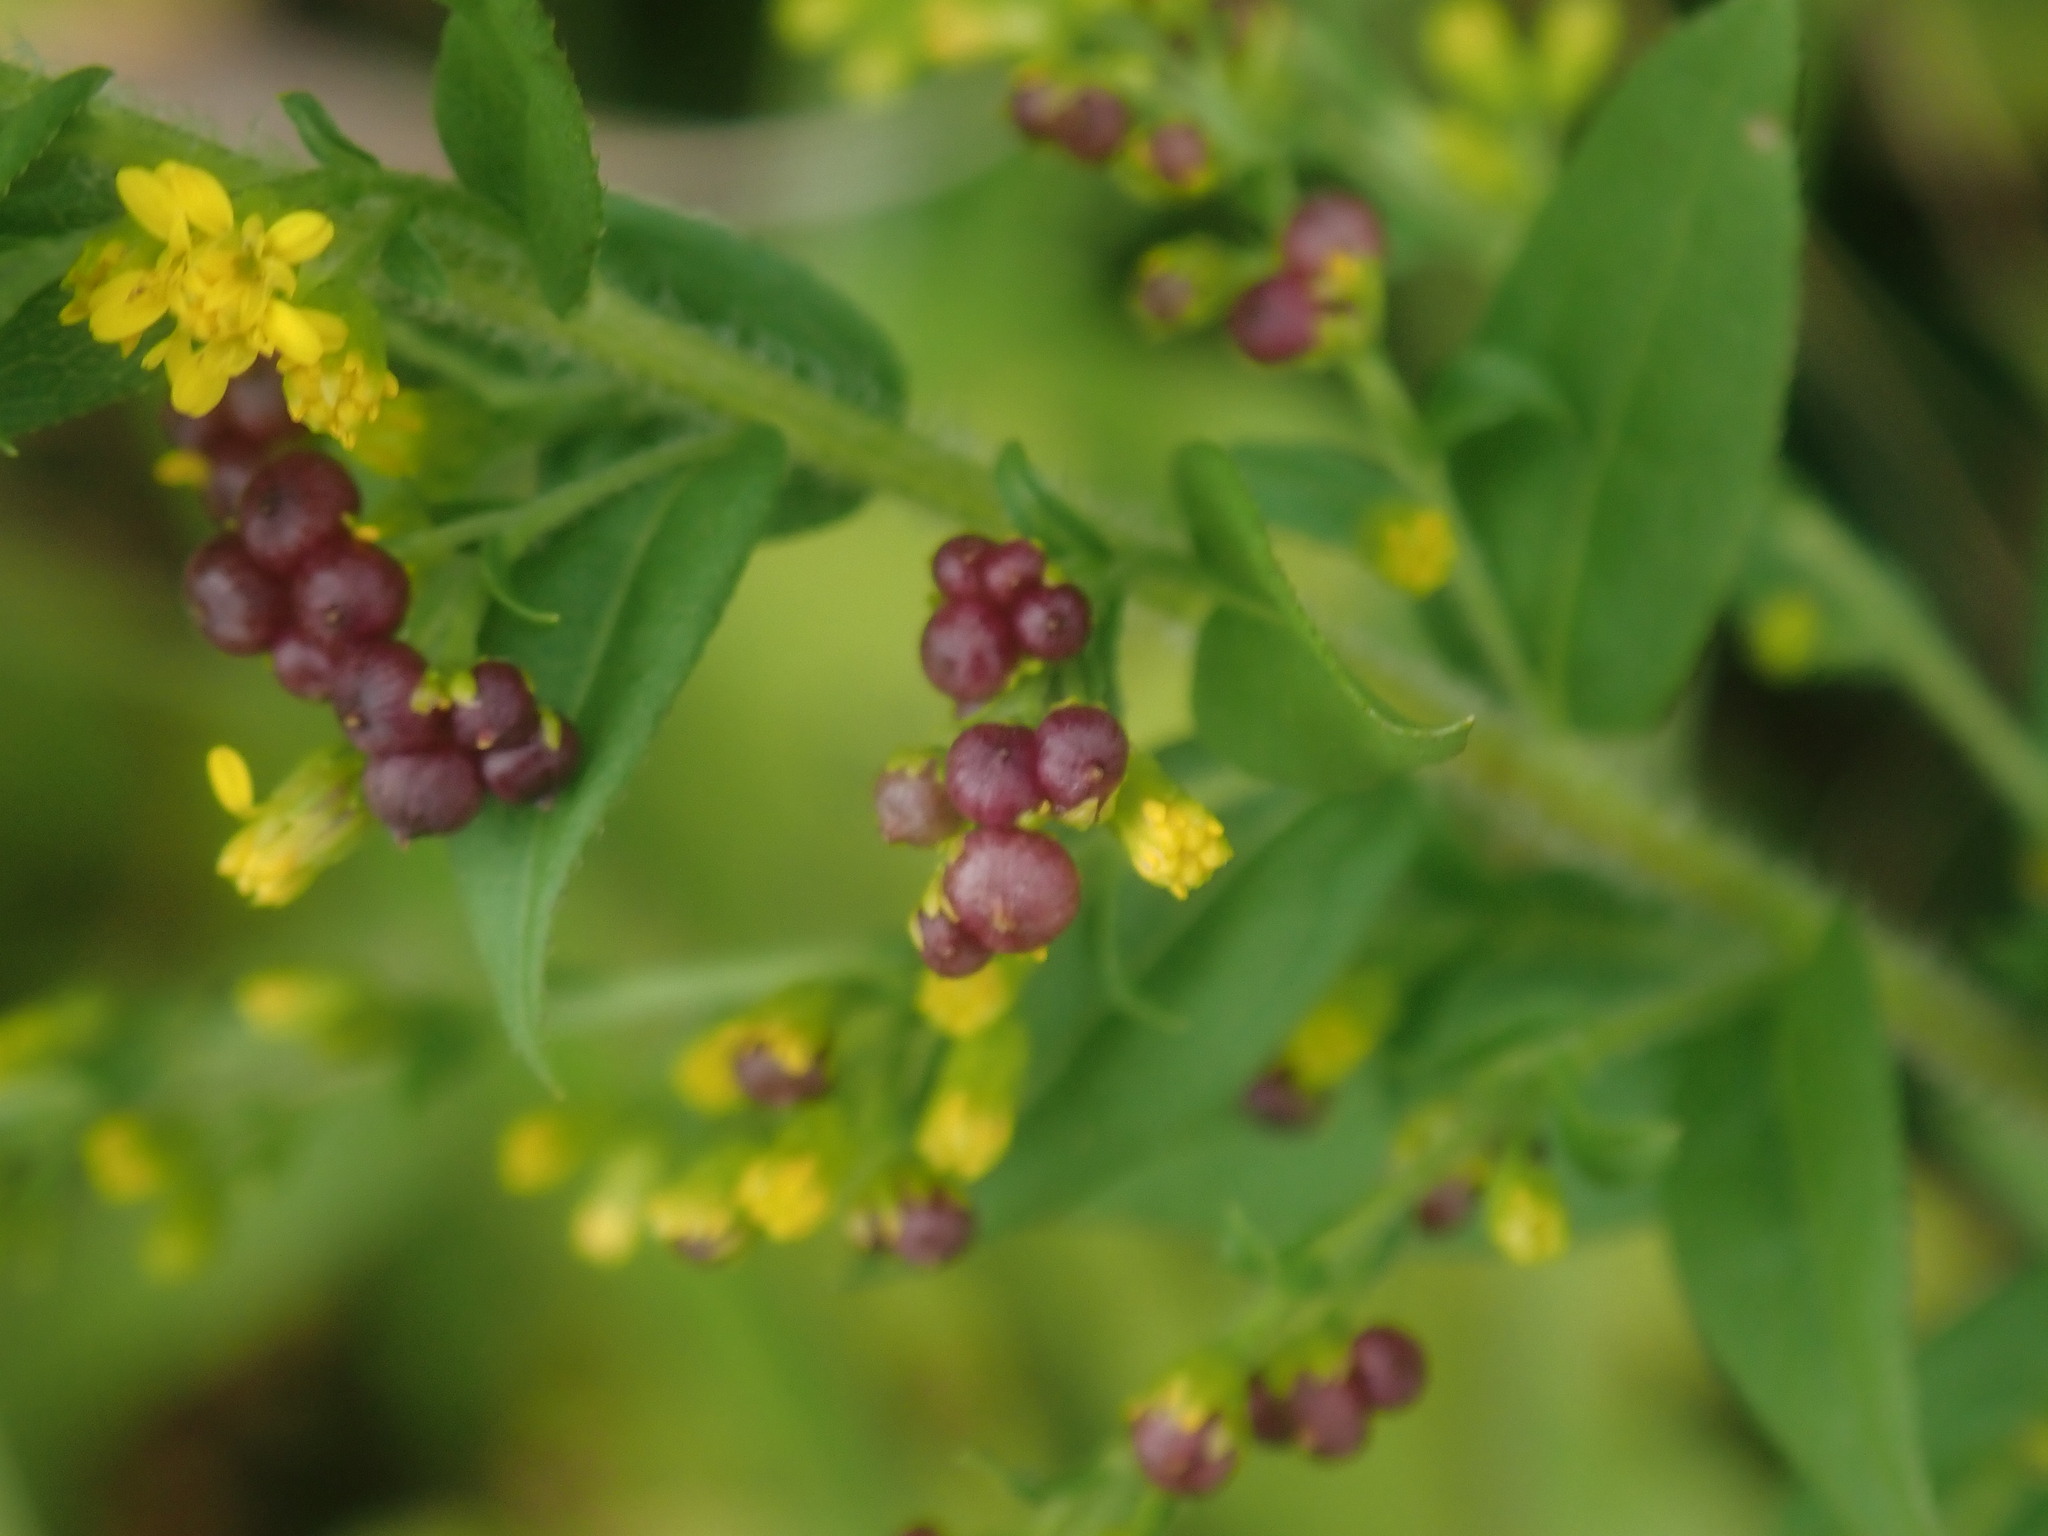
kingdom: Animalia
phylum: Arthropoda
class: Insecta
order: Diptera
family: Cecidomyiidae
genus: Schizomyia
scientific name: Schizomyia racemicola
